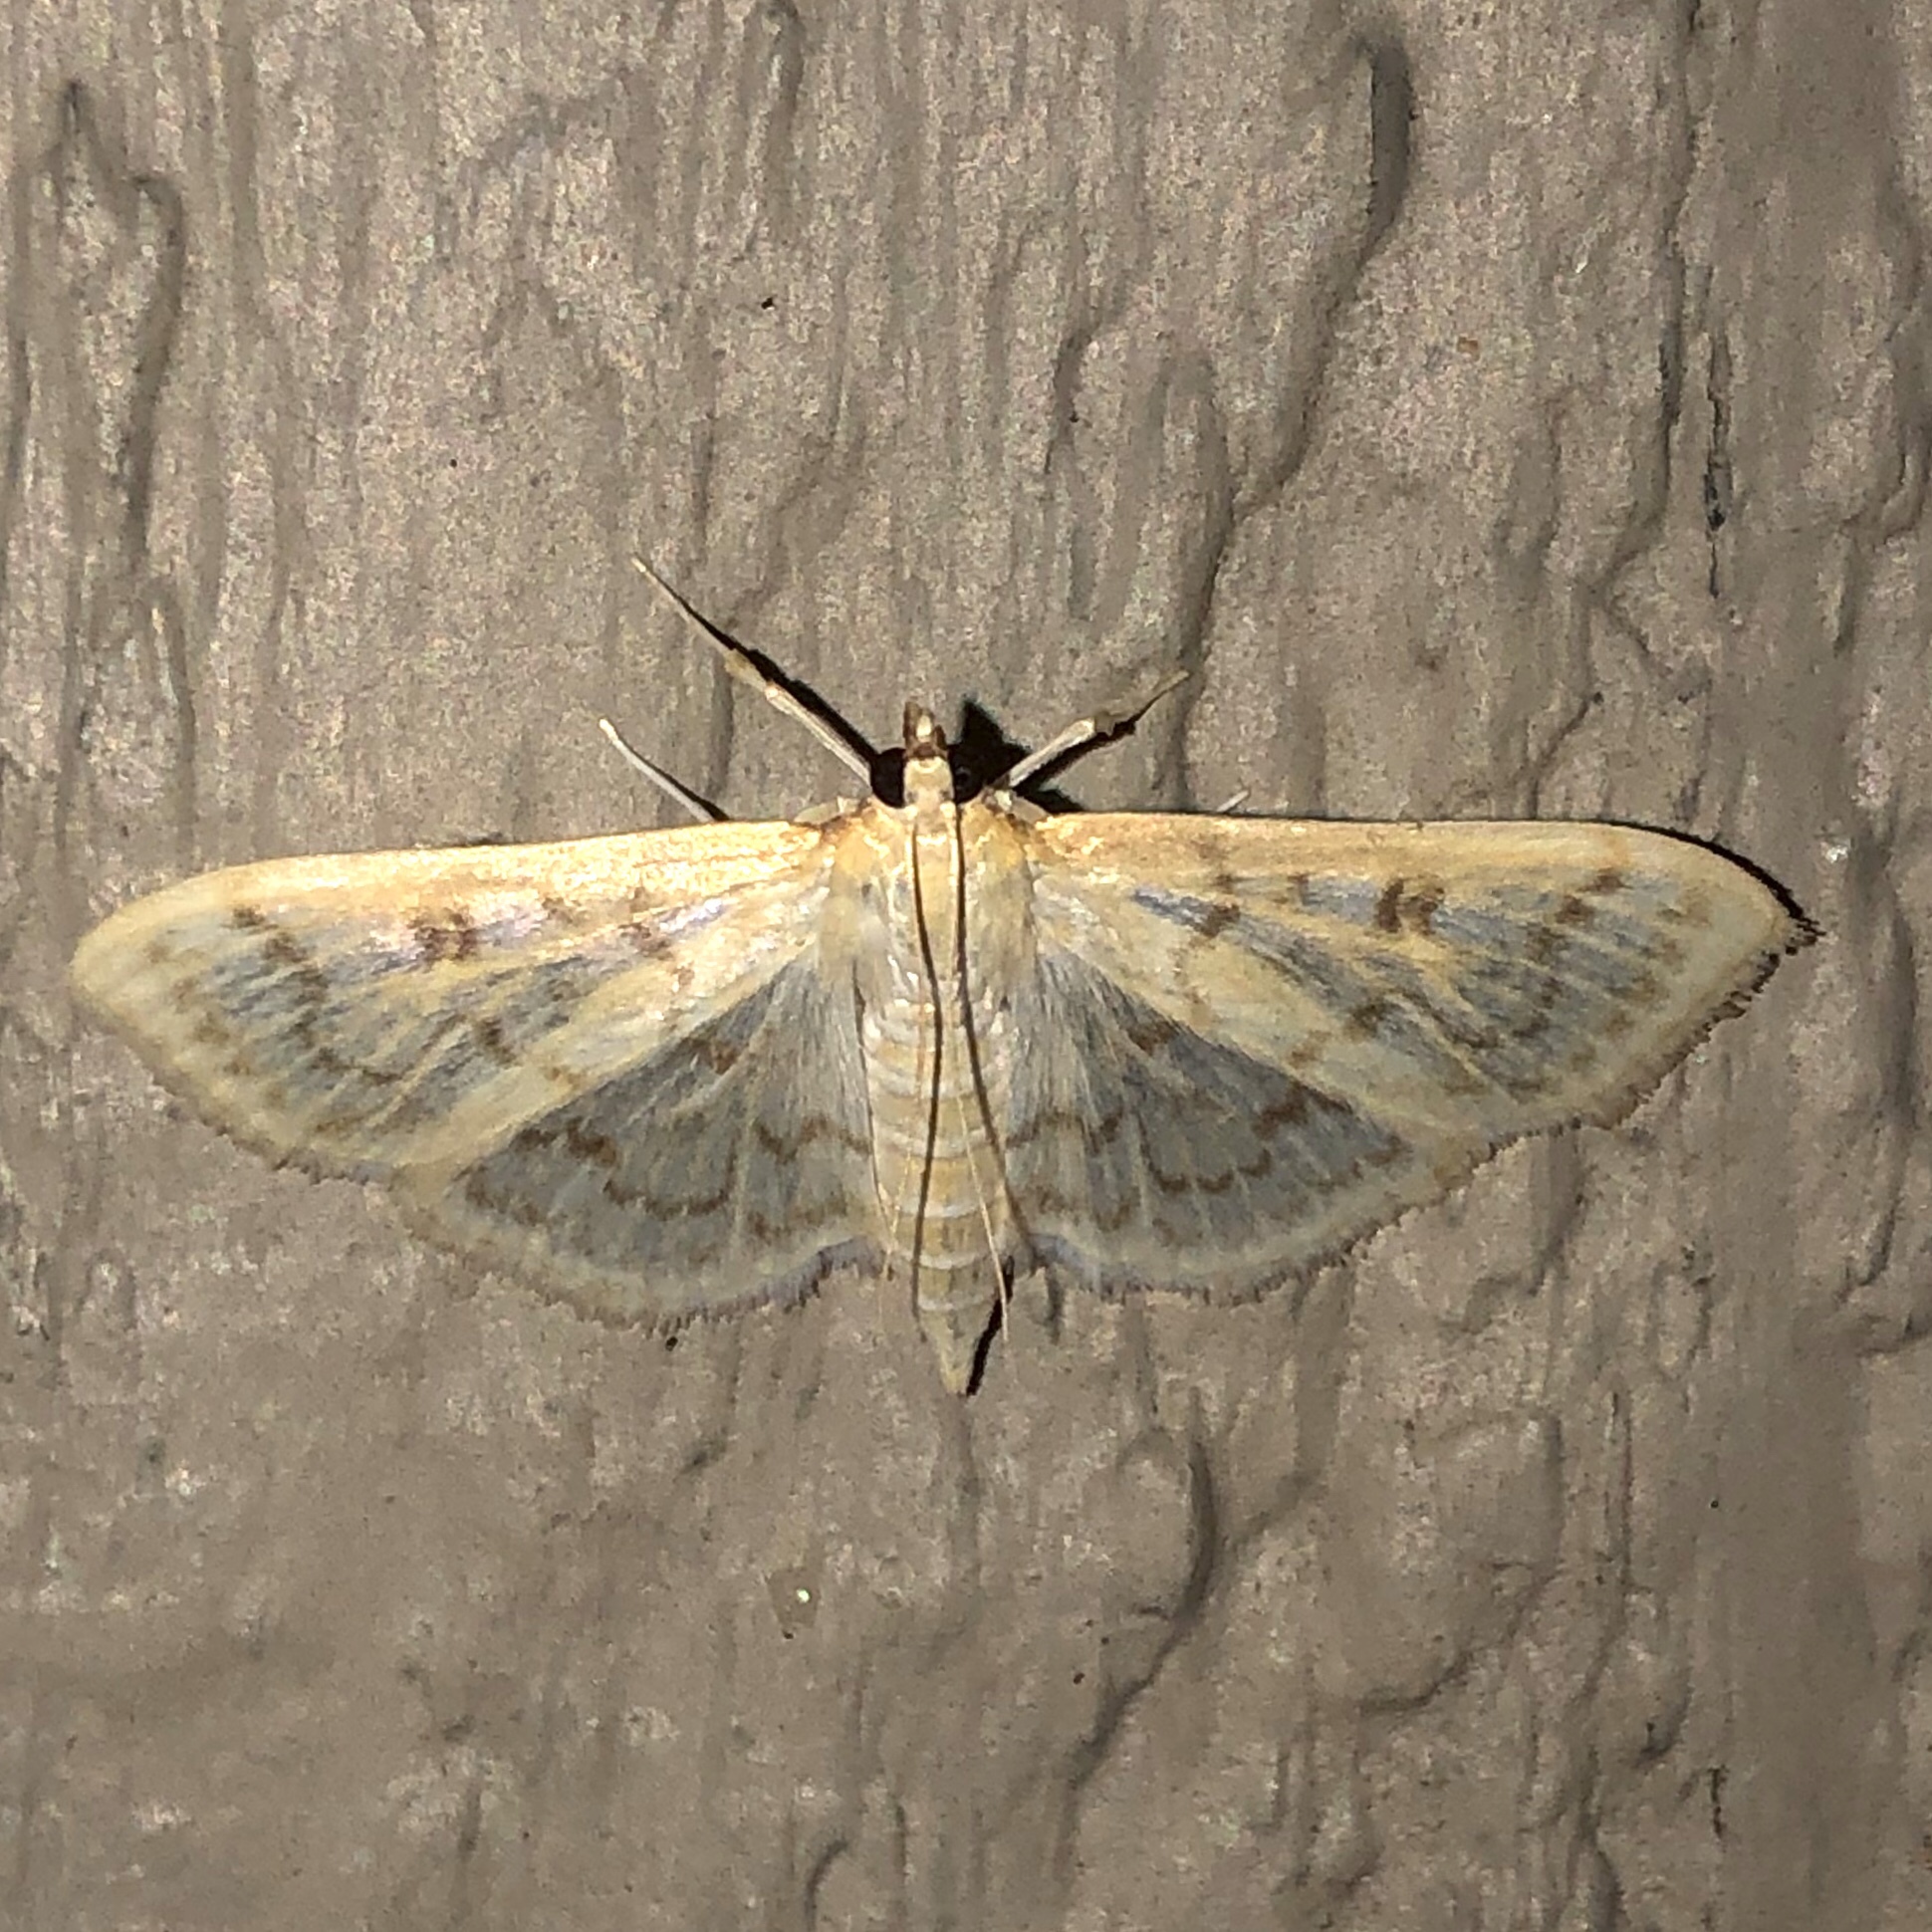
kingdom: Animalia
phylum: Arthropoda
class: Insecta
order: Lepidoptera
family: Crambidae
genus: Herpetogramma
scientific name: Herpetogramma aquilonalis
